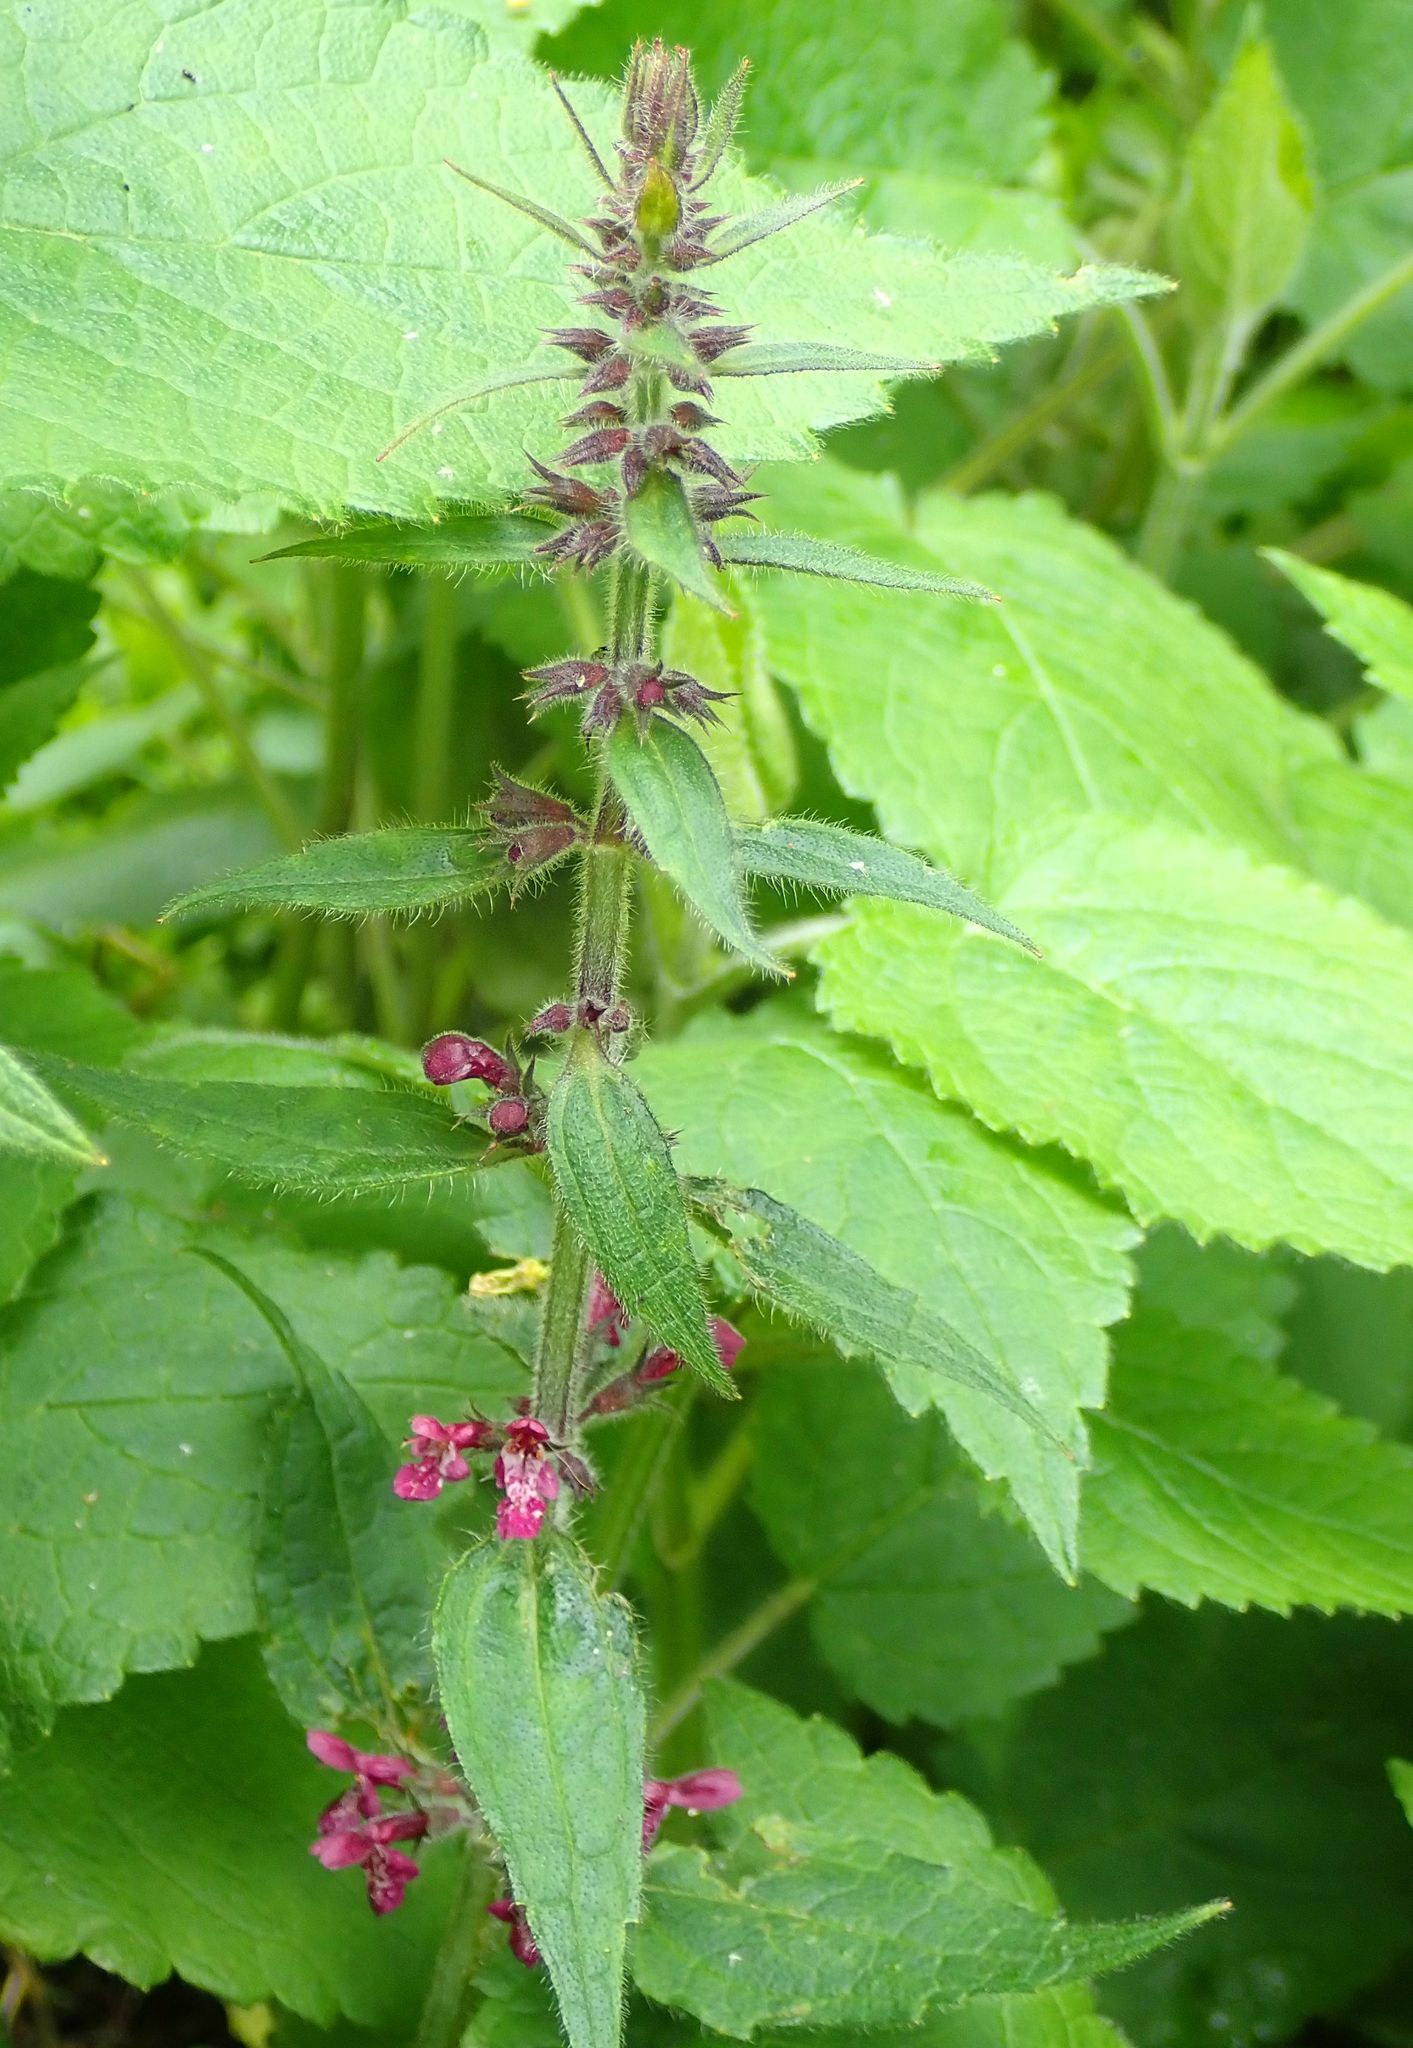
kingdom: Plantae
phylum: Tracheophyta
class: Magnoliopsida
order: Lamiales
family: Lamiaceae
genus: Stachys
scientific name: Stachys sylvatica
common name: Hedge woundwort
